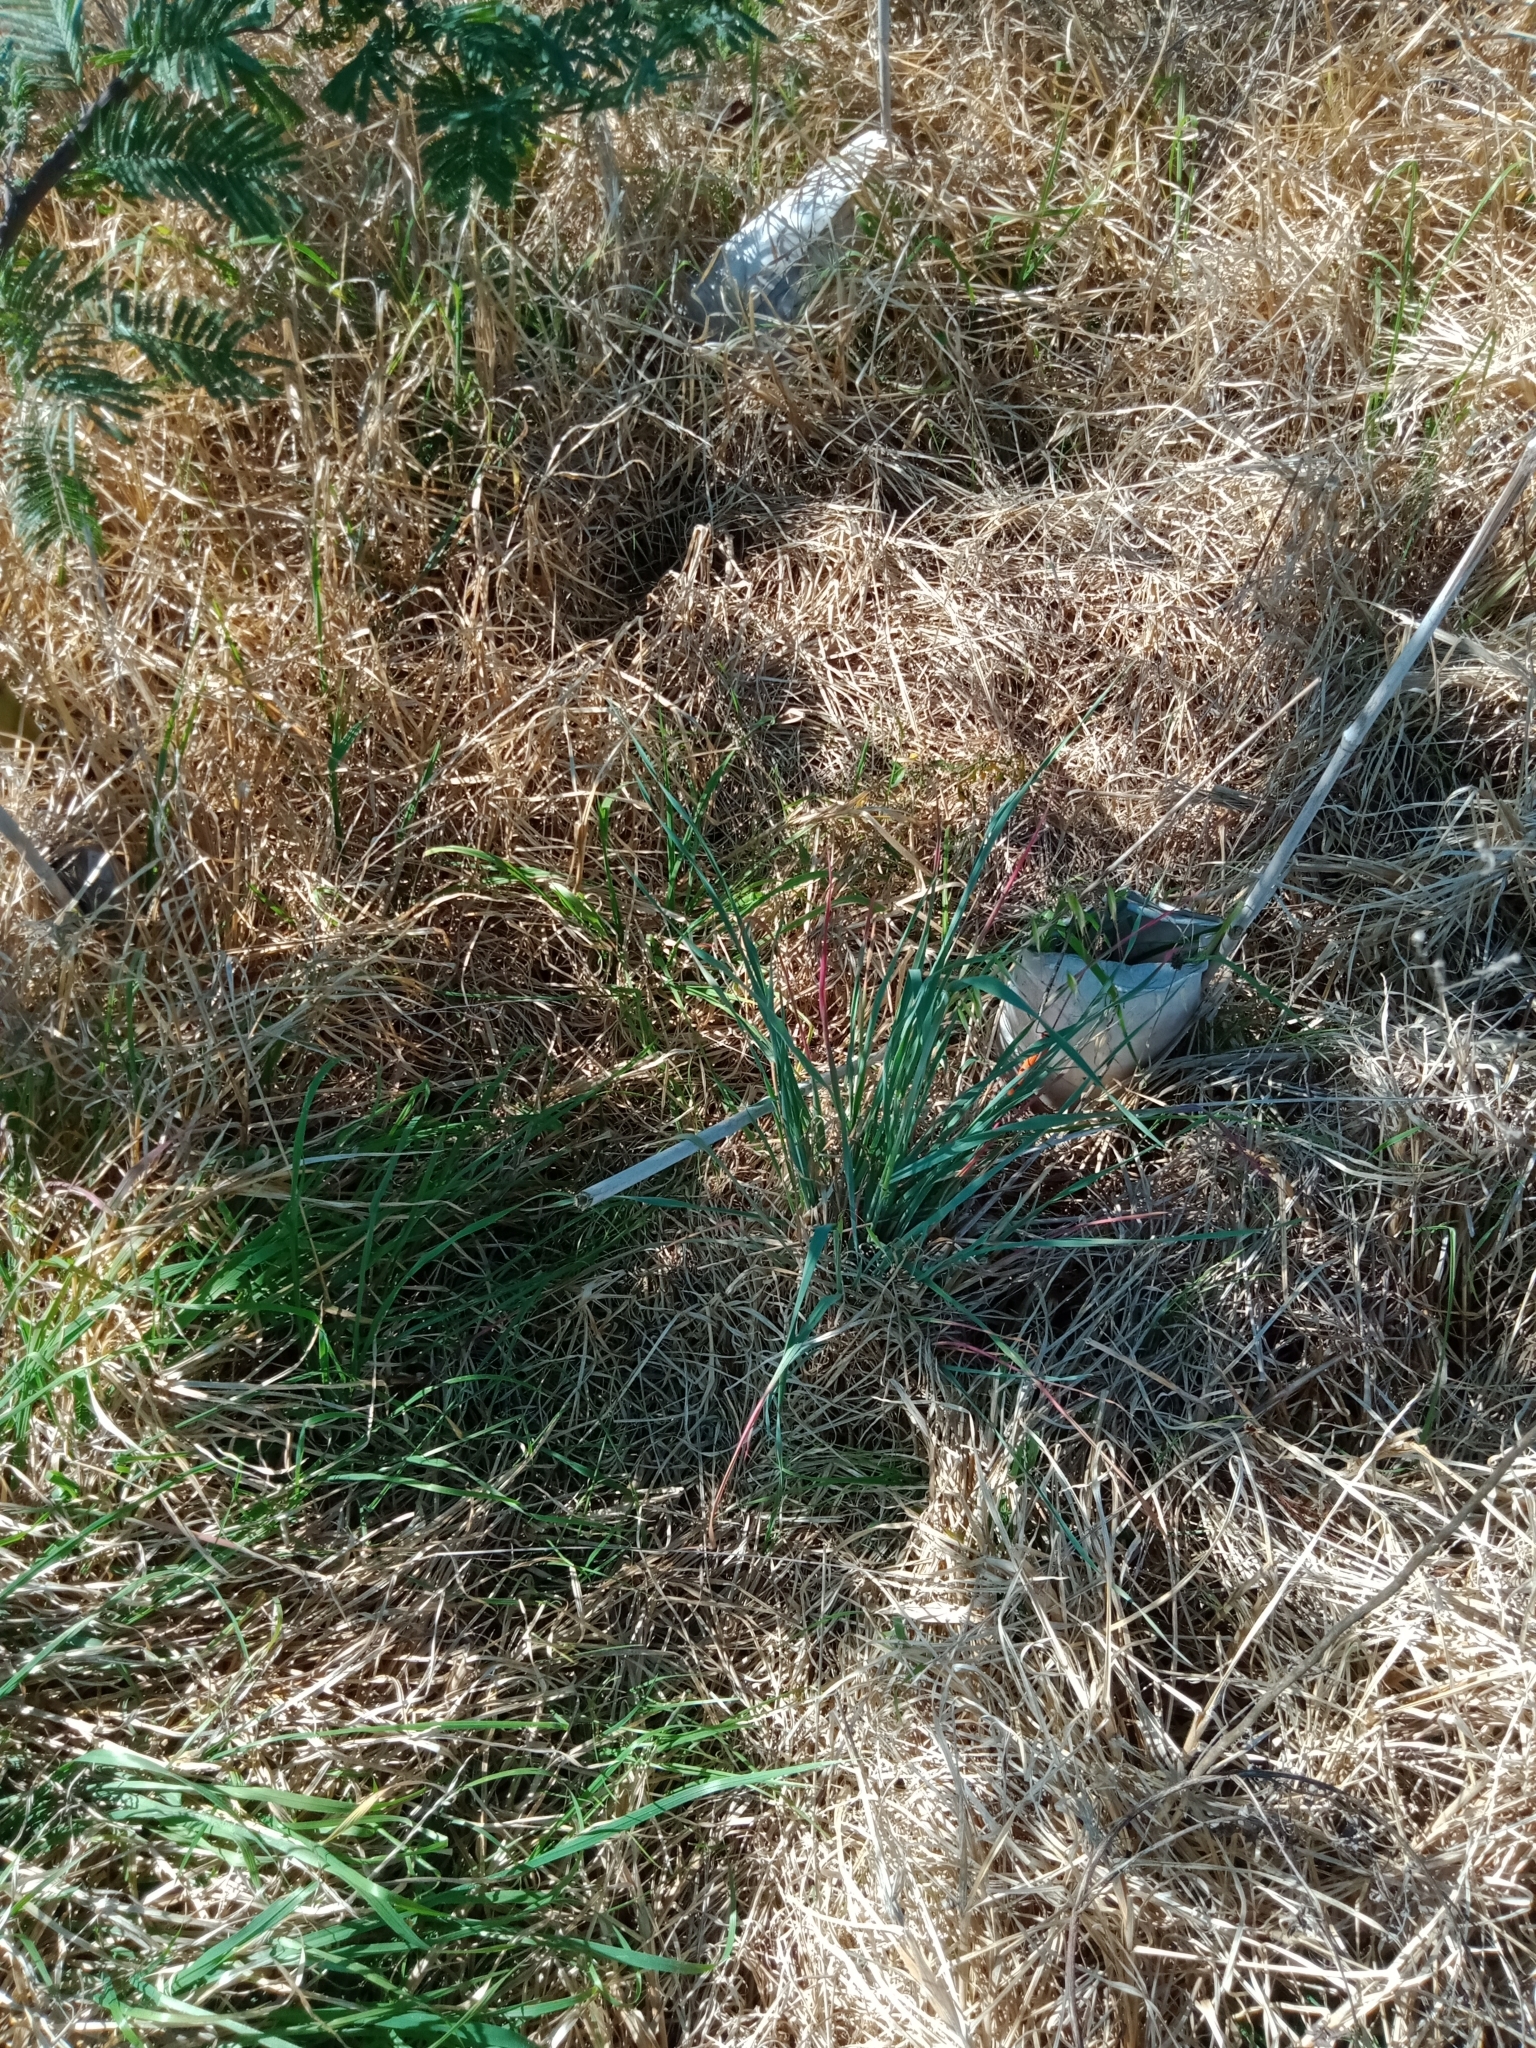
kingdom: Plantae
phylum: Tracheophyta
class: Liliopsida
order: Poales
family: Poaceae
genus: Avena
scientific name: Avena
